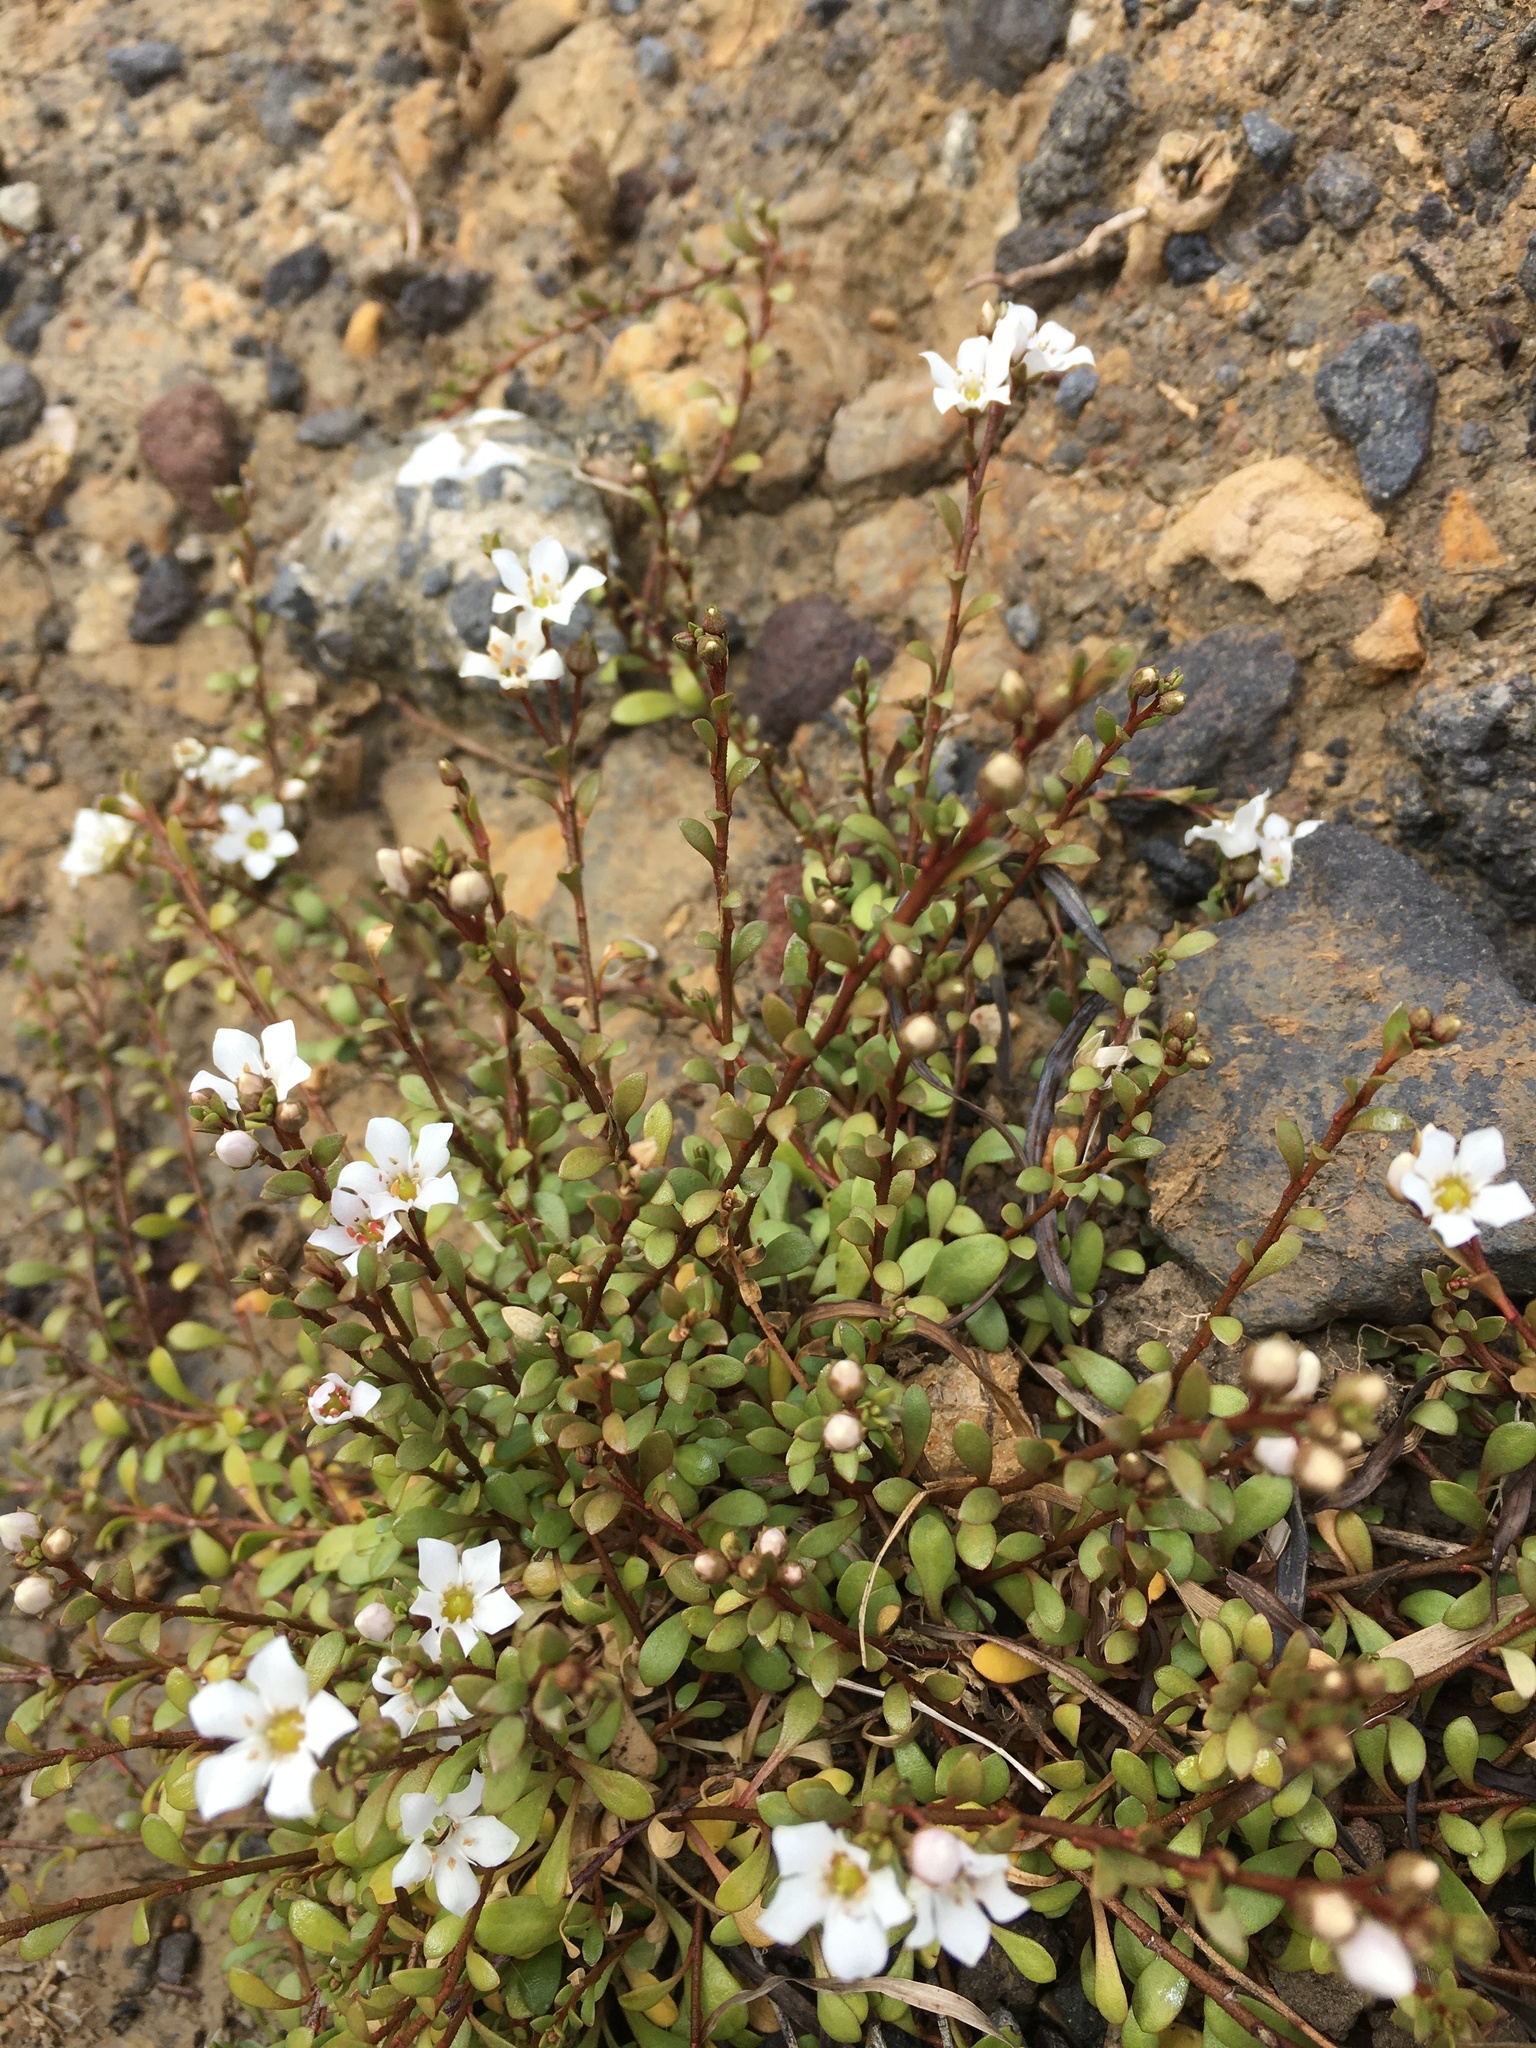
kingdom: Plantae
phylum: Tracheophyta
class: Magnoliopsida
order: Ericales
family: Primulaceae
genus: Samolus
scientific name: Samolus repens
